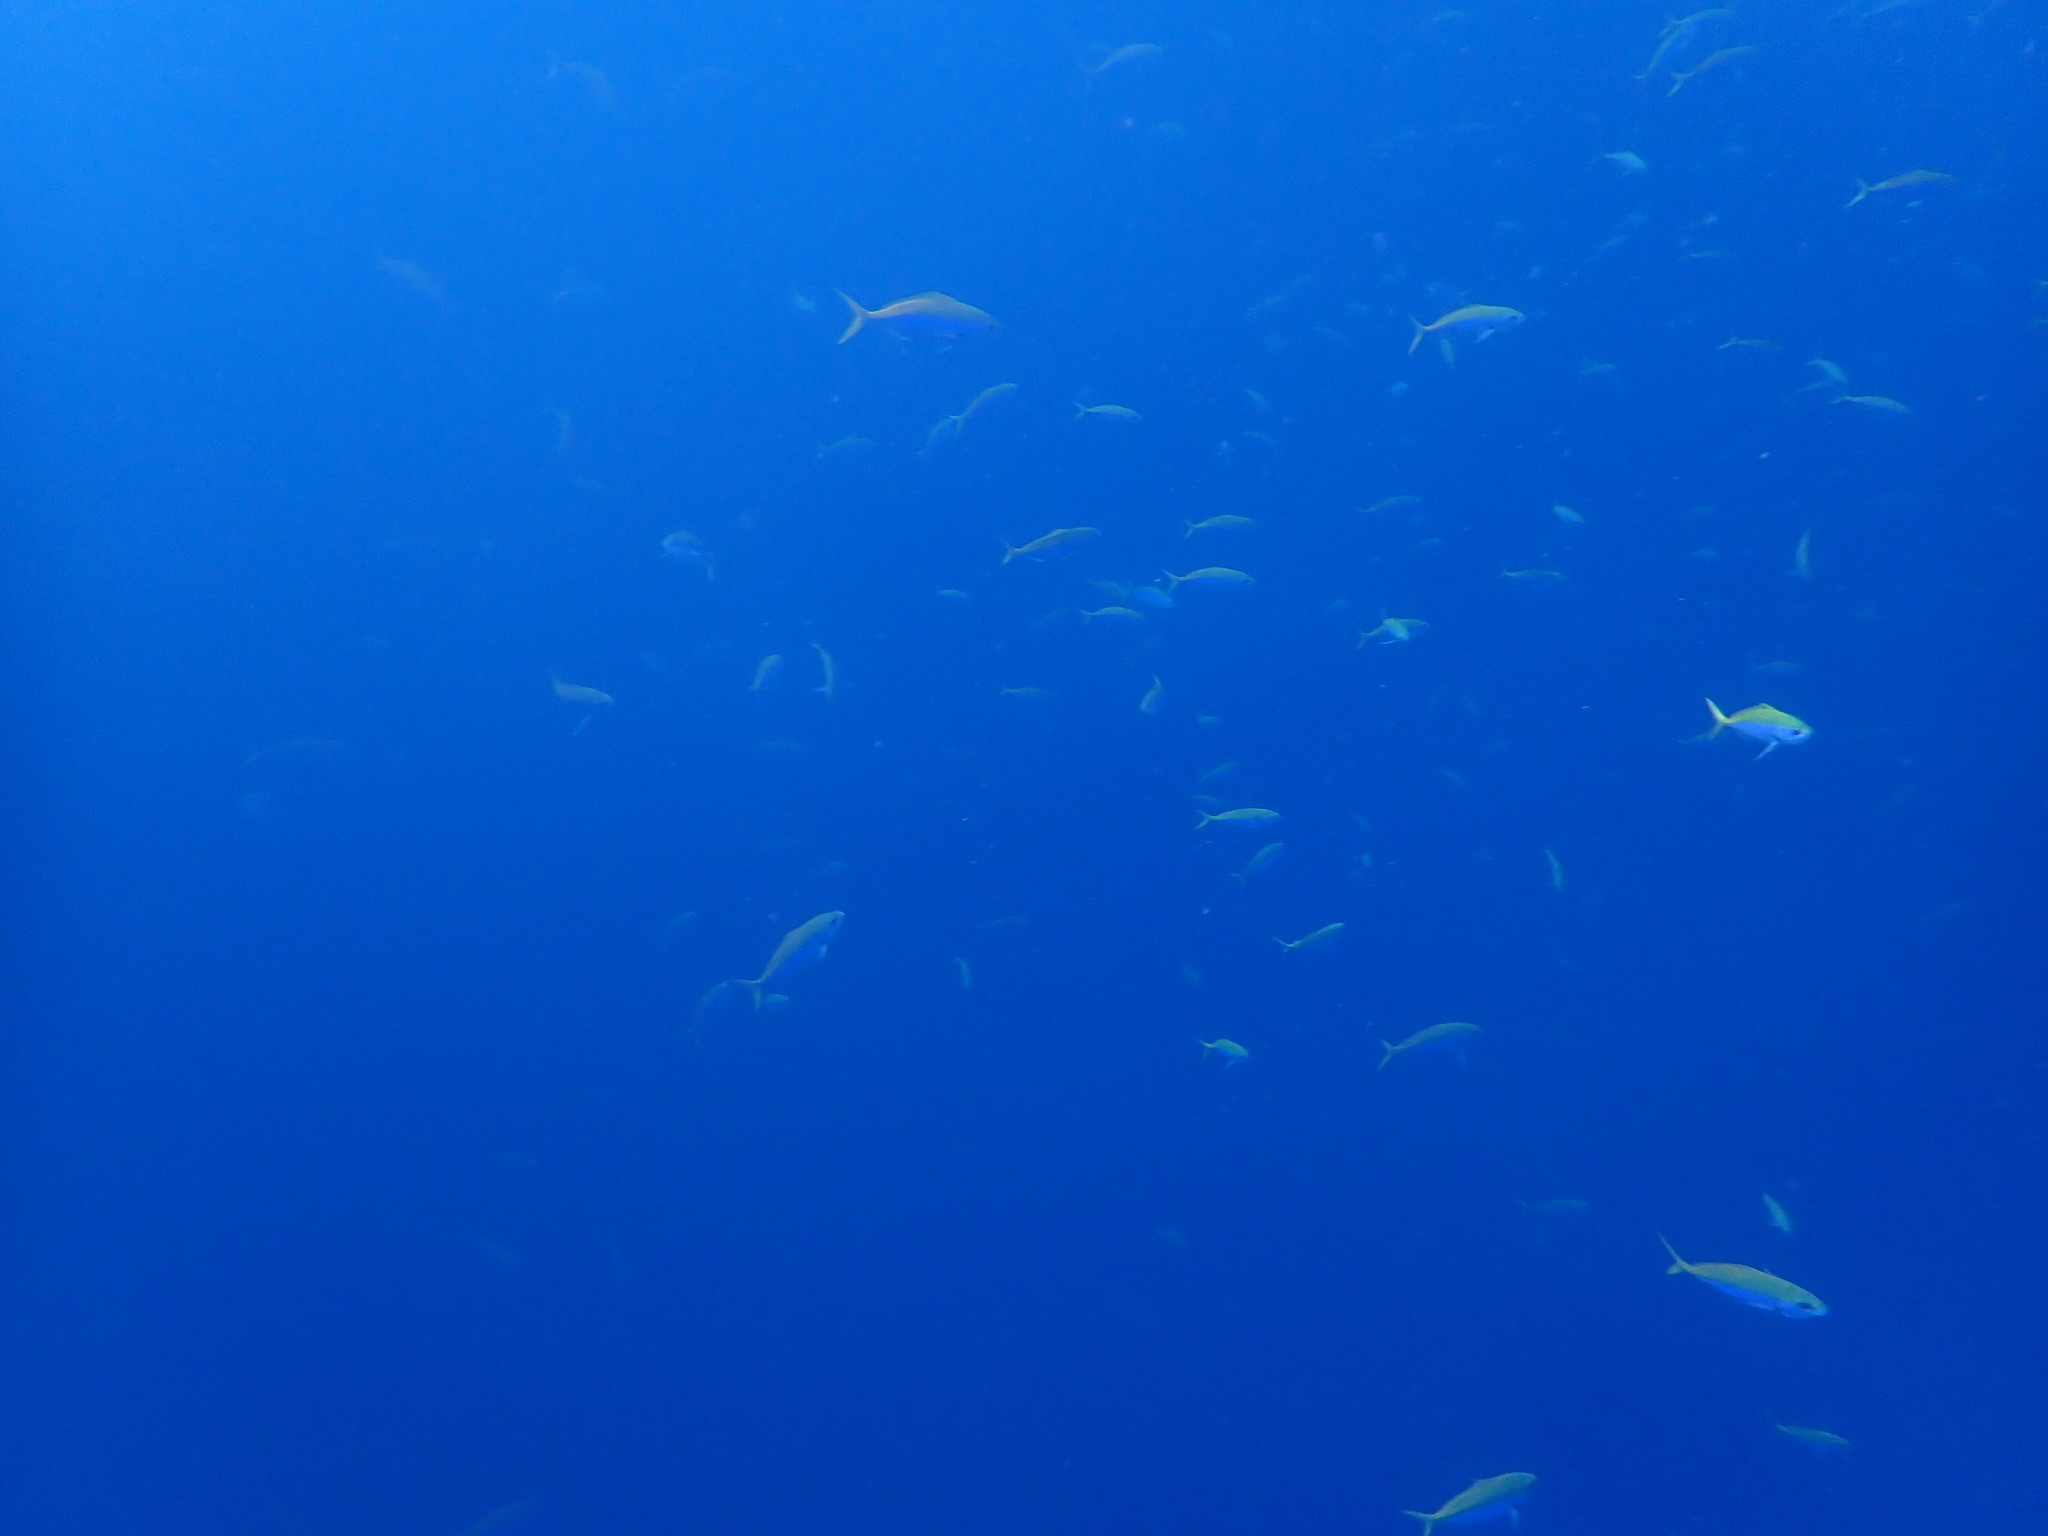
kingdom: Animalia
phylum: Chordata
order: Perciformes
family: Caesionidae
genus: Caesio
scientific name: Caesio xanthonota
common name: Yellowback fusilier
